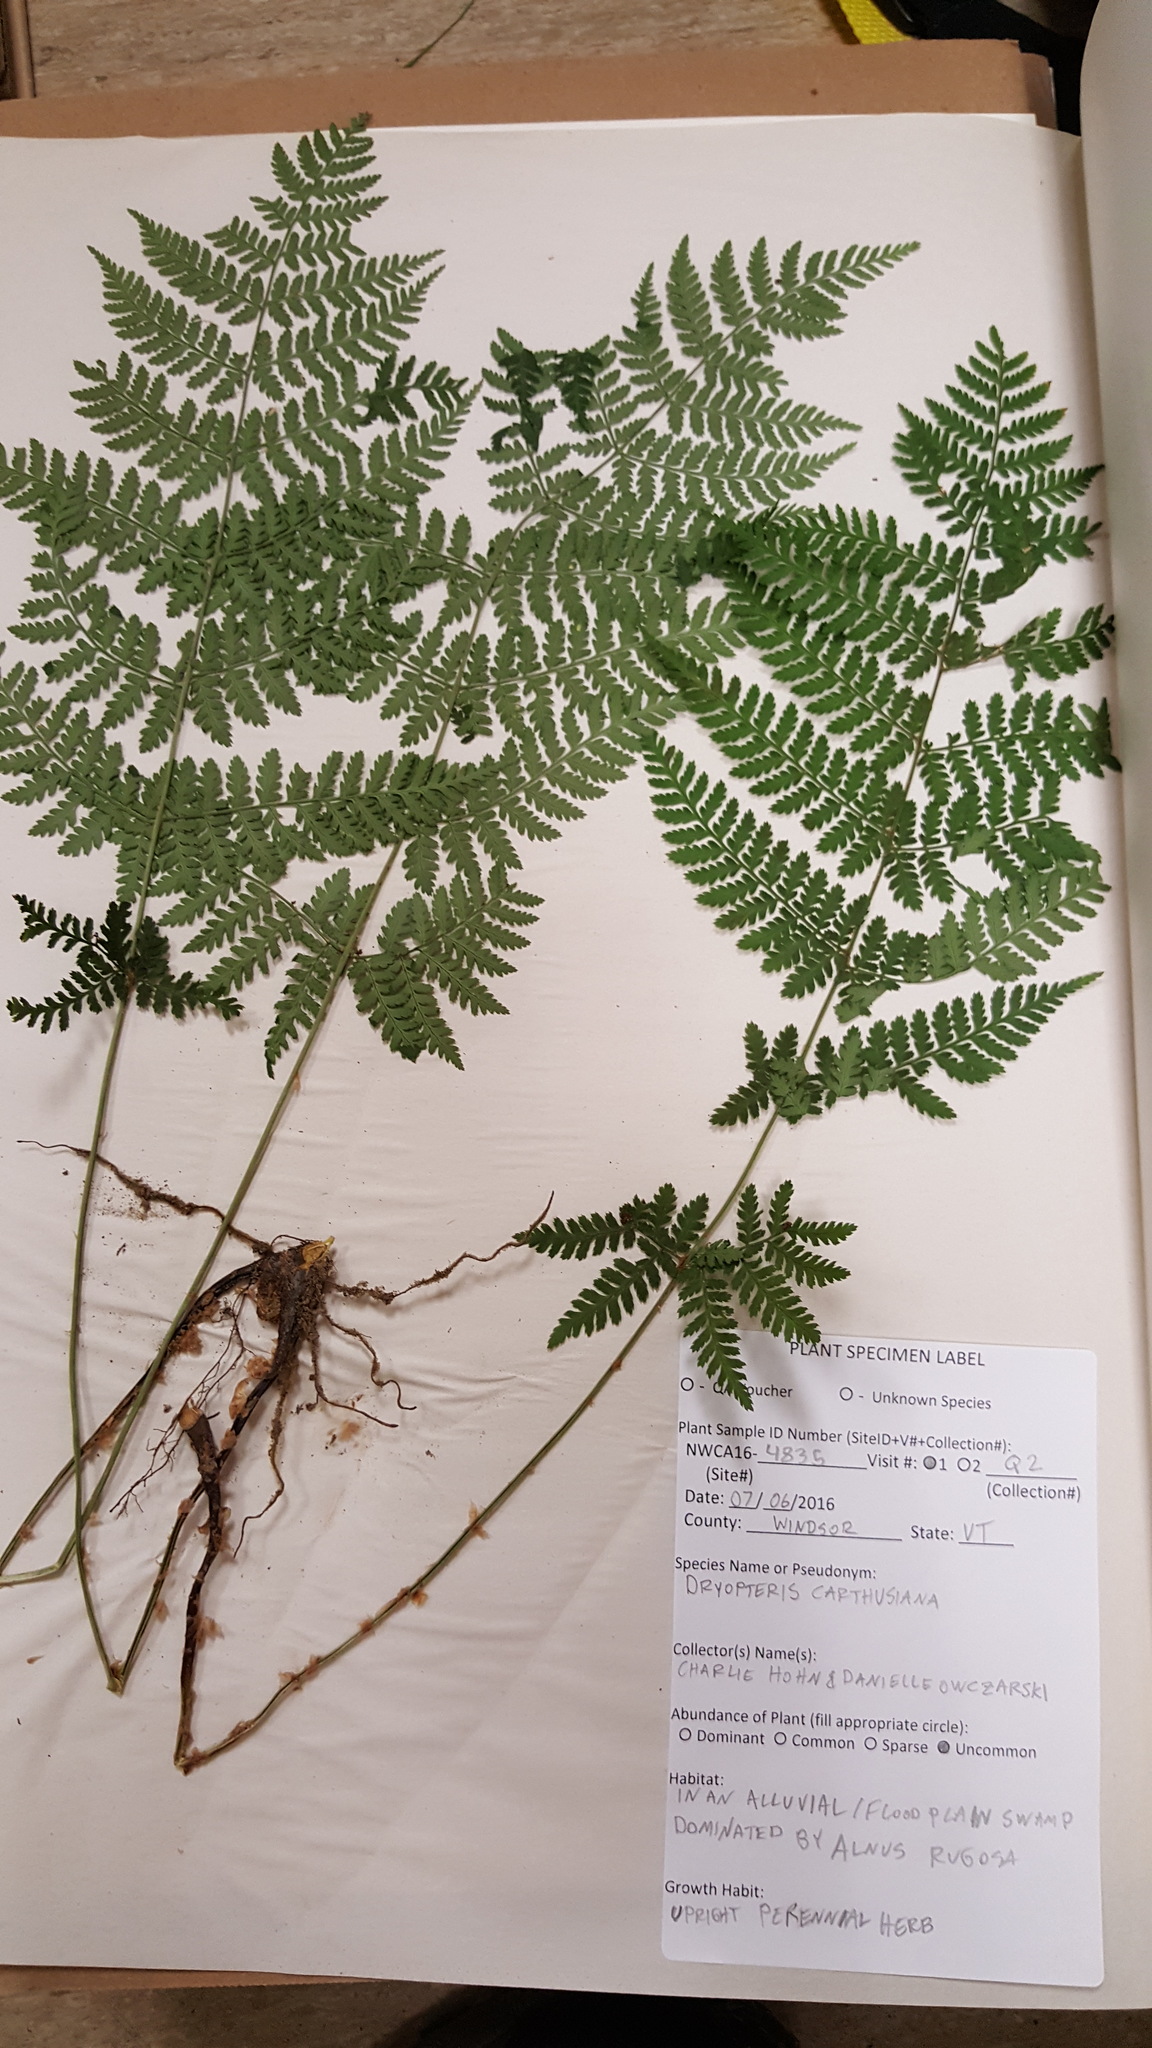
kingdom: Plantae
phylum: Tracheophyta
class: Polypodiopsida
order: Polypodiales
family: Dryopteridaceae
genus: Dryopteris
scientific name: Dryopteris carthusiana
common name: Narrow buckler-fern
